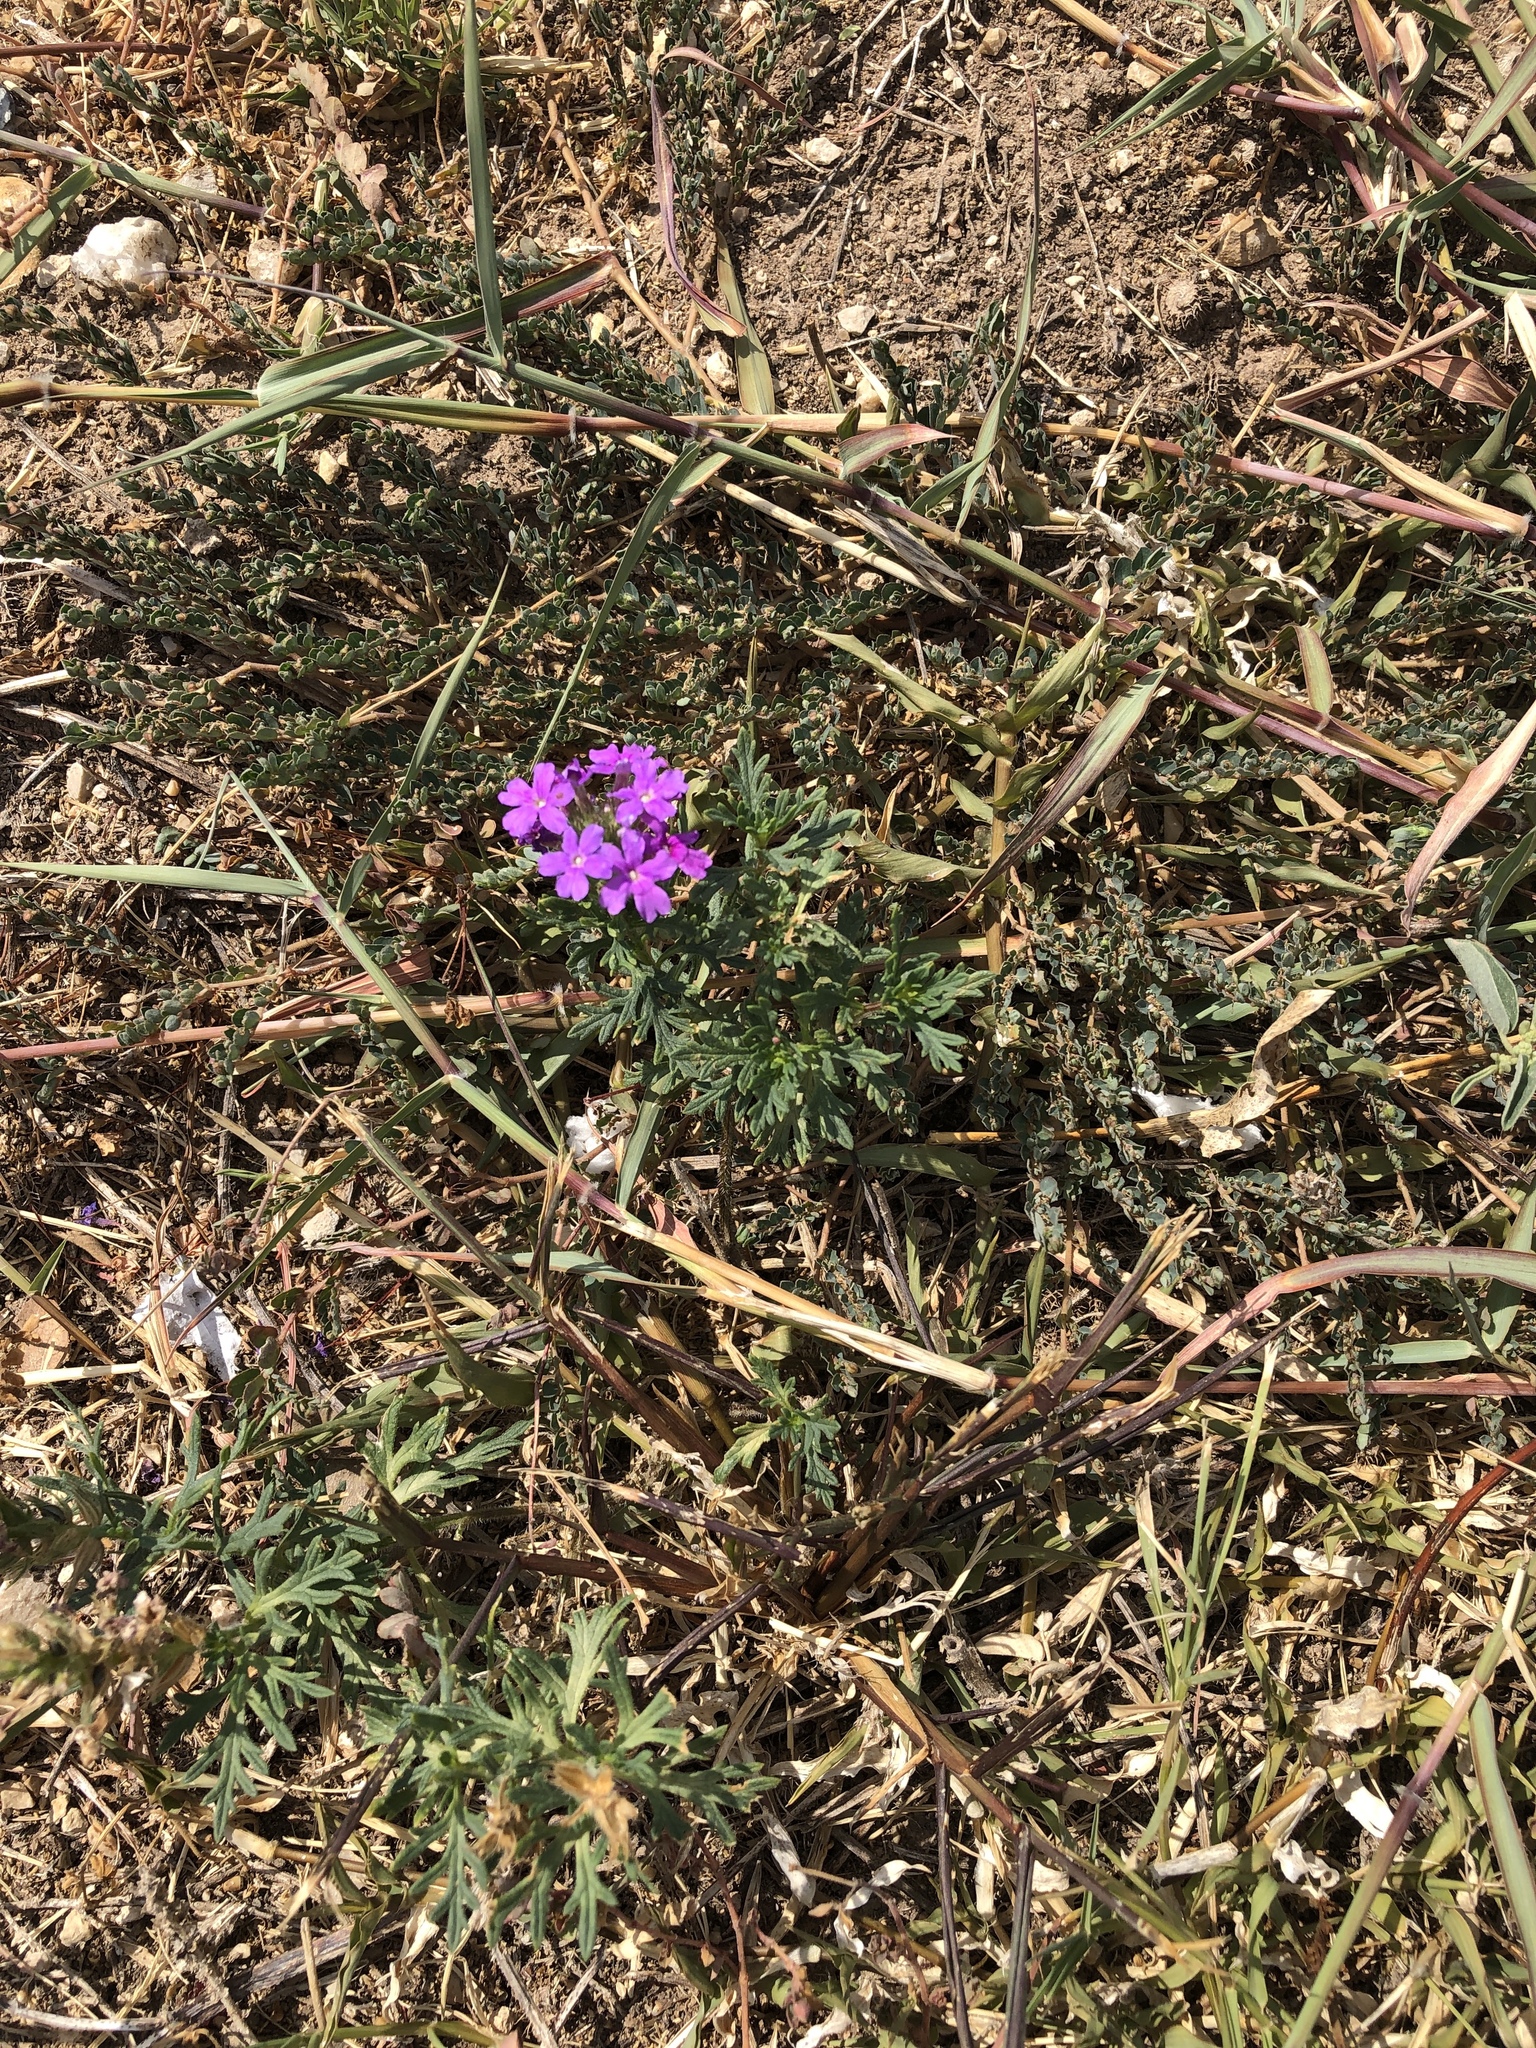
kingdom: Plantae
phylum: Tracheophyta
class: Magnoliopsida
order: Lamiales
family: Verbenaceae
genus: Verbena
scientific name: Verbena bipinnatifida
